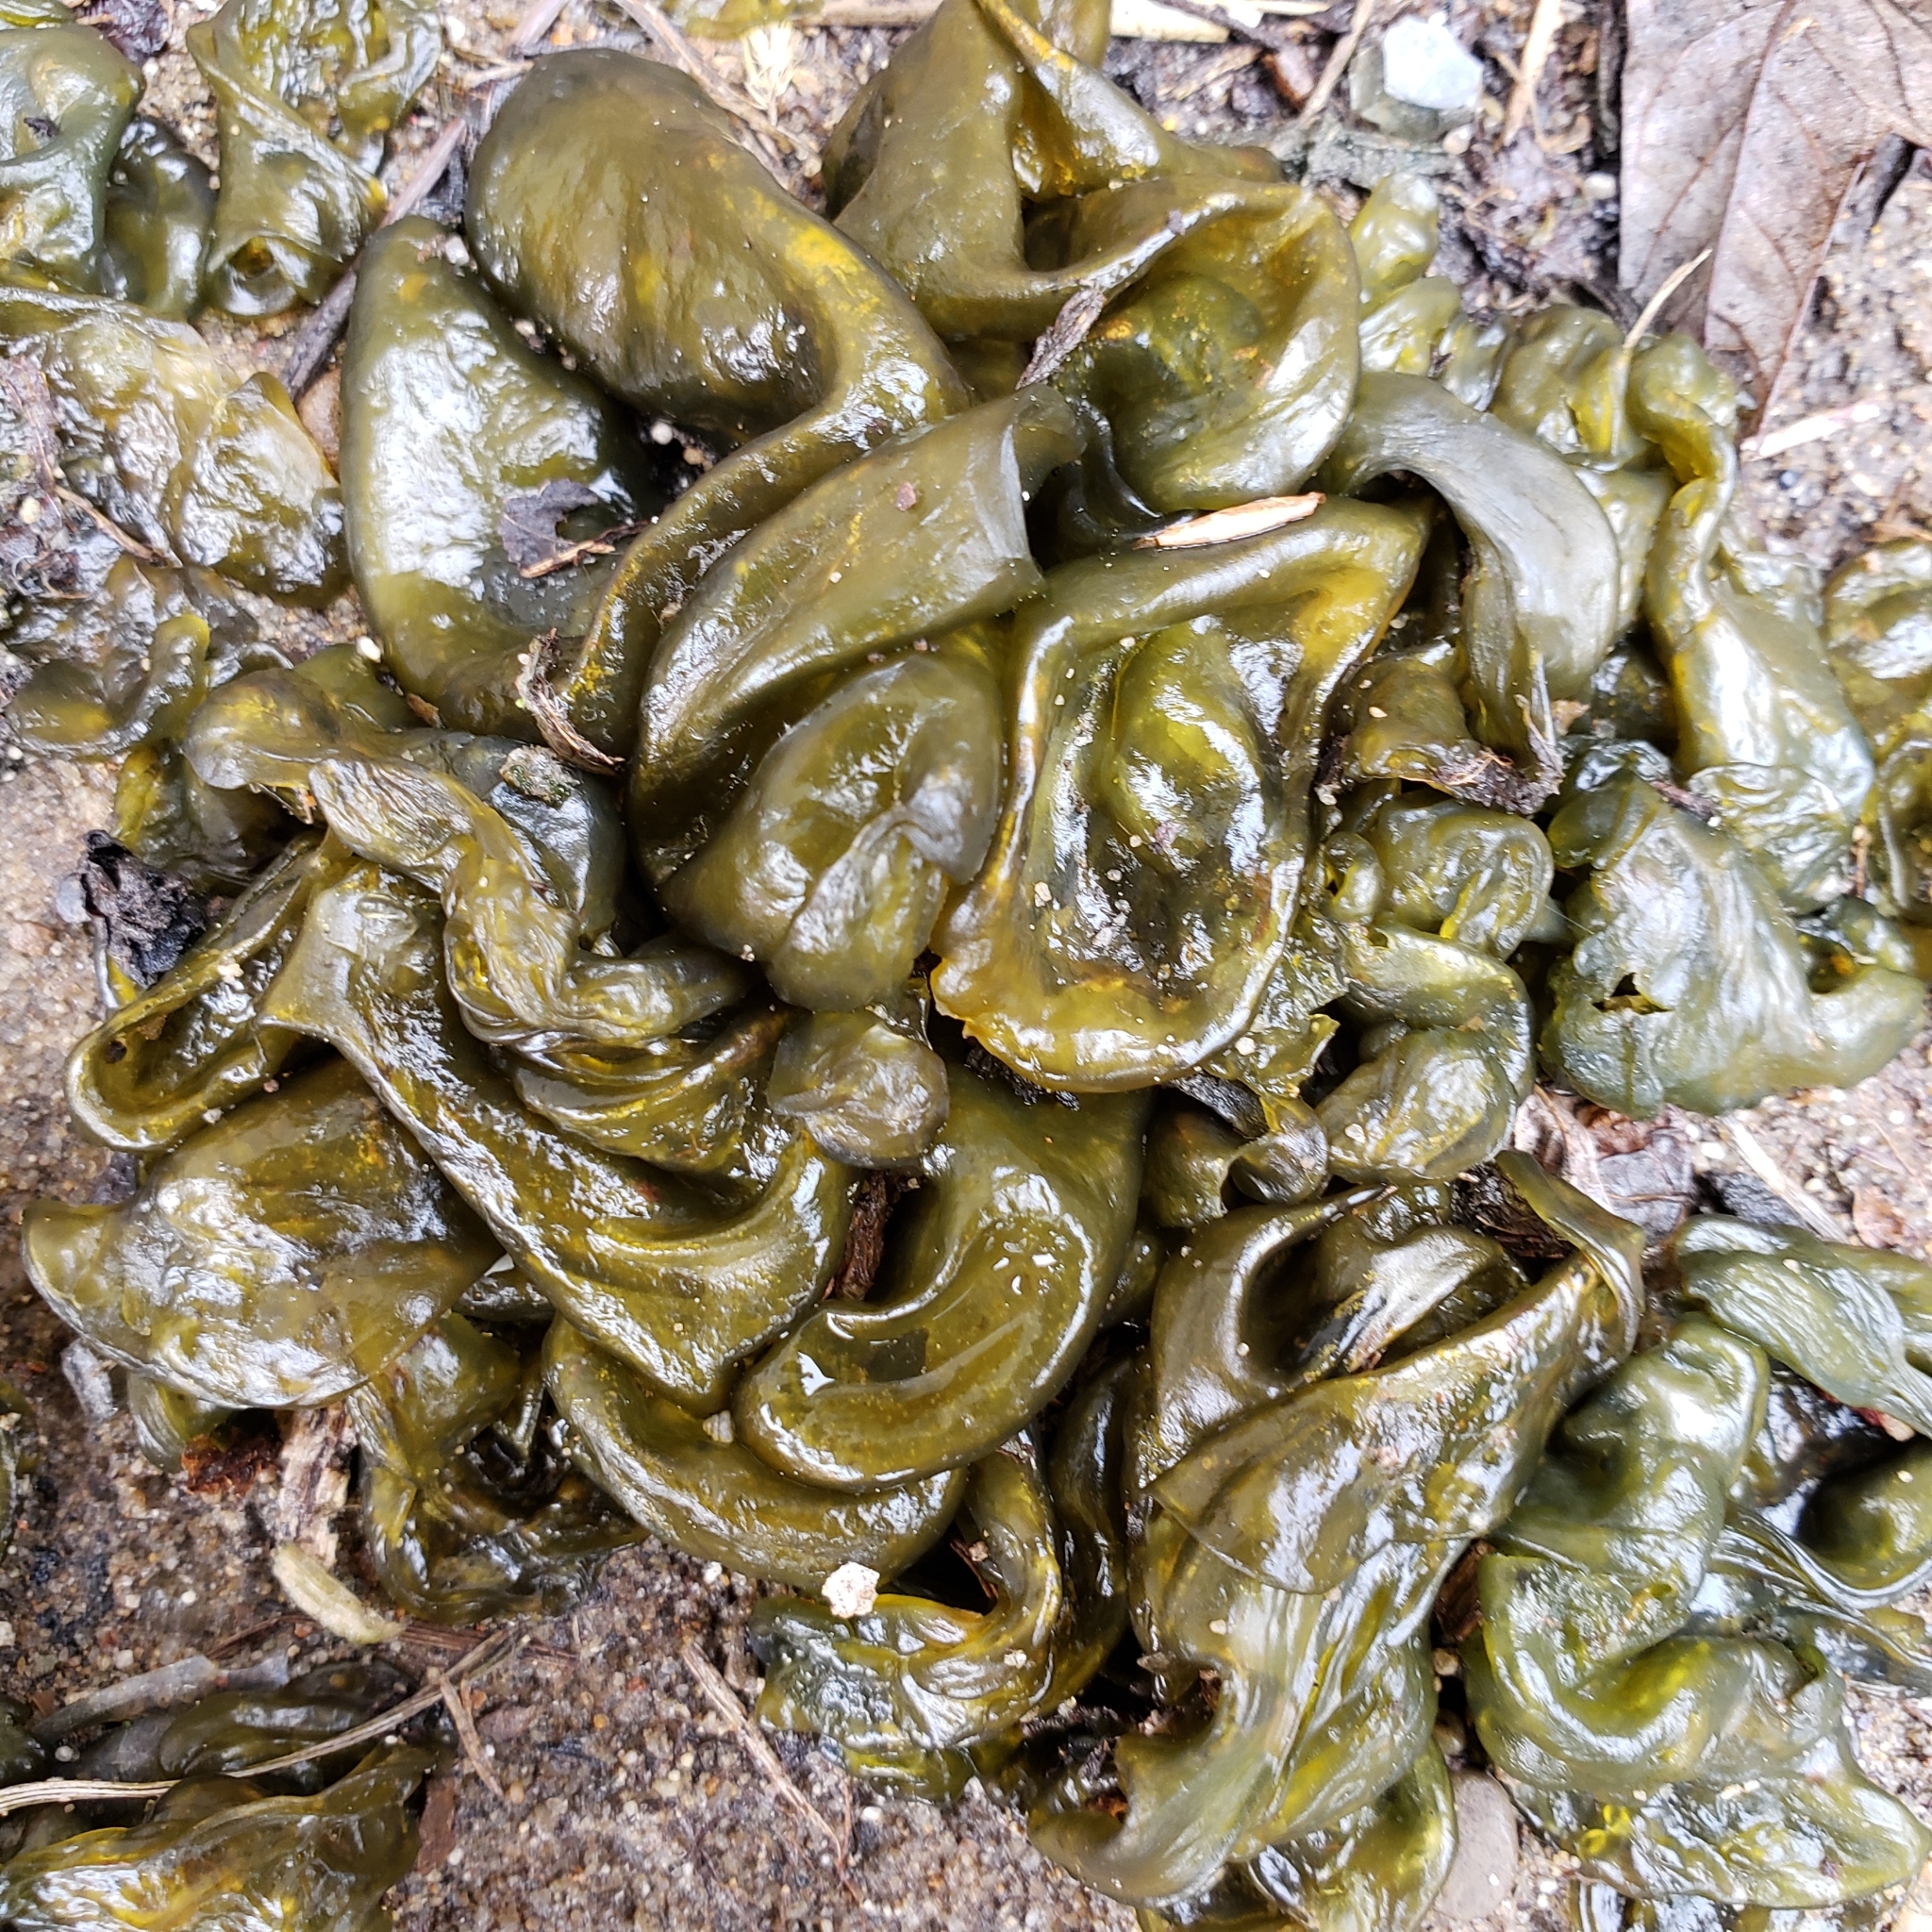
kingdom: Bacteria
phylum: Cyanobacteria
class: Cyanobacteriia
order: Cyanobacteriales
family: Nostocaceae
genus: Nostoc
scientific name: Nostoc commune
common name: Star jelly
